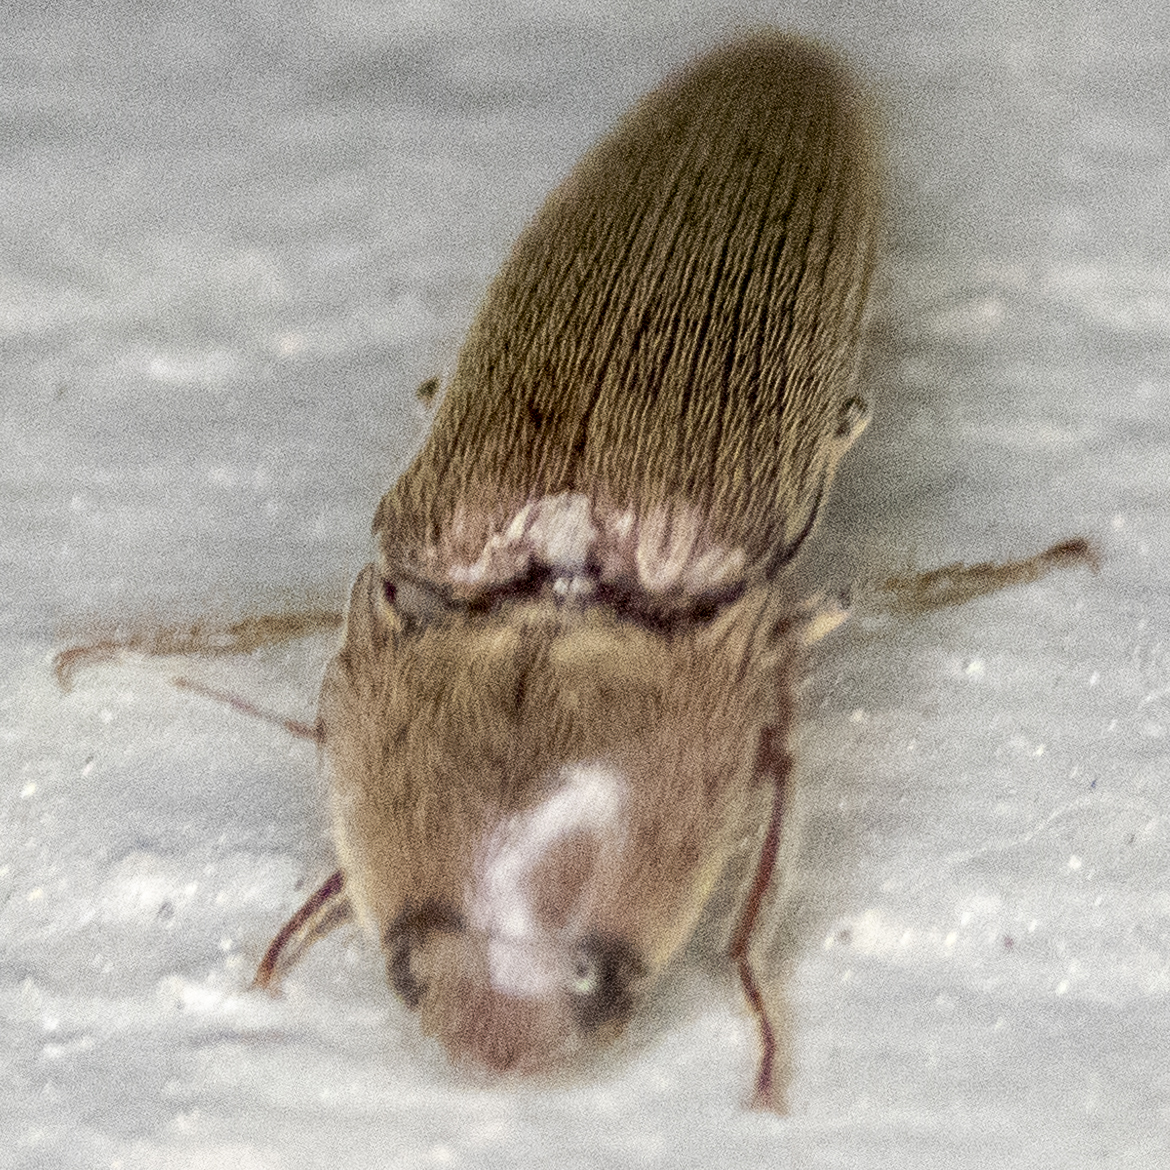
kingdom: Animalia
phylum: Arthropoda
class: Insecta
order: Coleoptera
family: Elateridae
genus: Melanotus
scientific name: Melanotus
